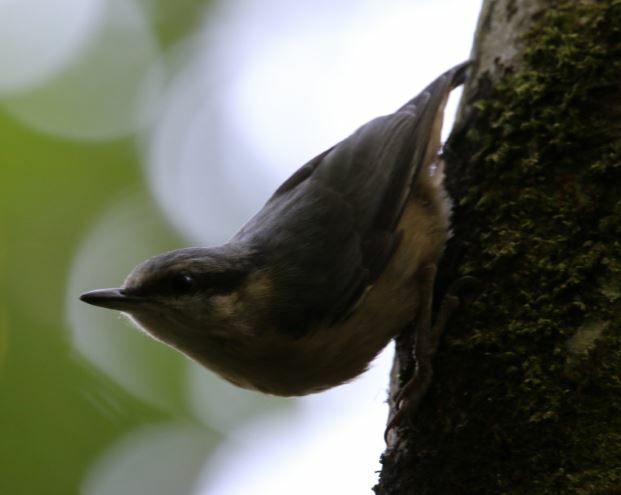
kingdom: Animalia
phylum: Chordata
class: Aves
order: Passeriformes
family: Sittidae
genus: Sitta
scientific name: Sitta europaea
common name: Eurasian nuthatch
